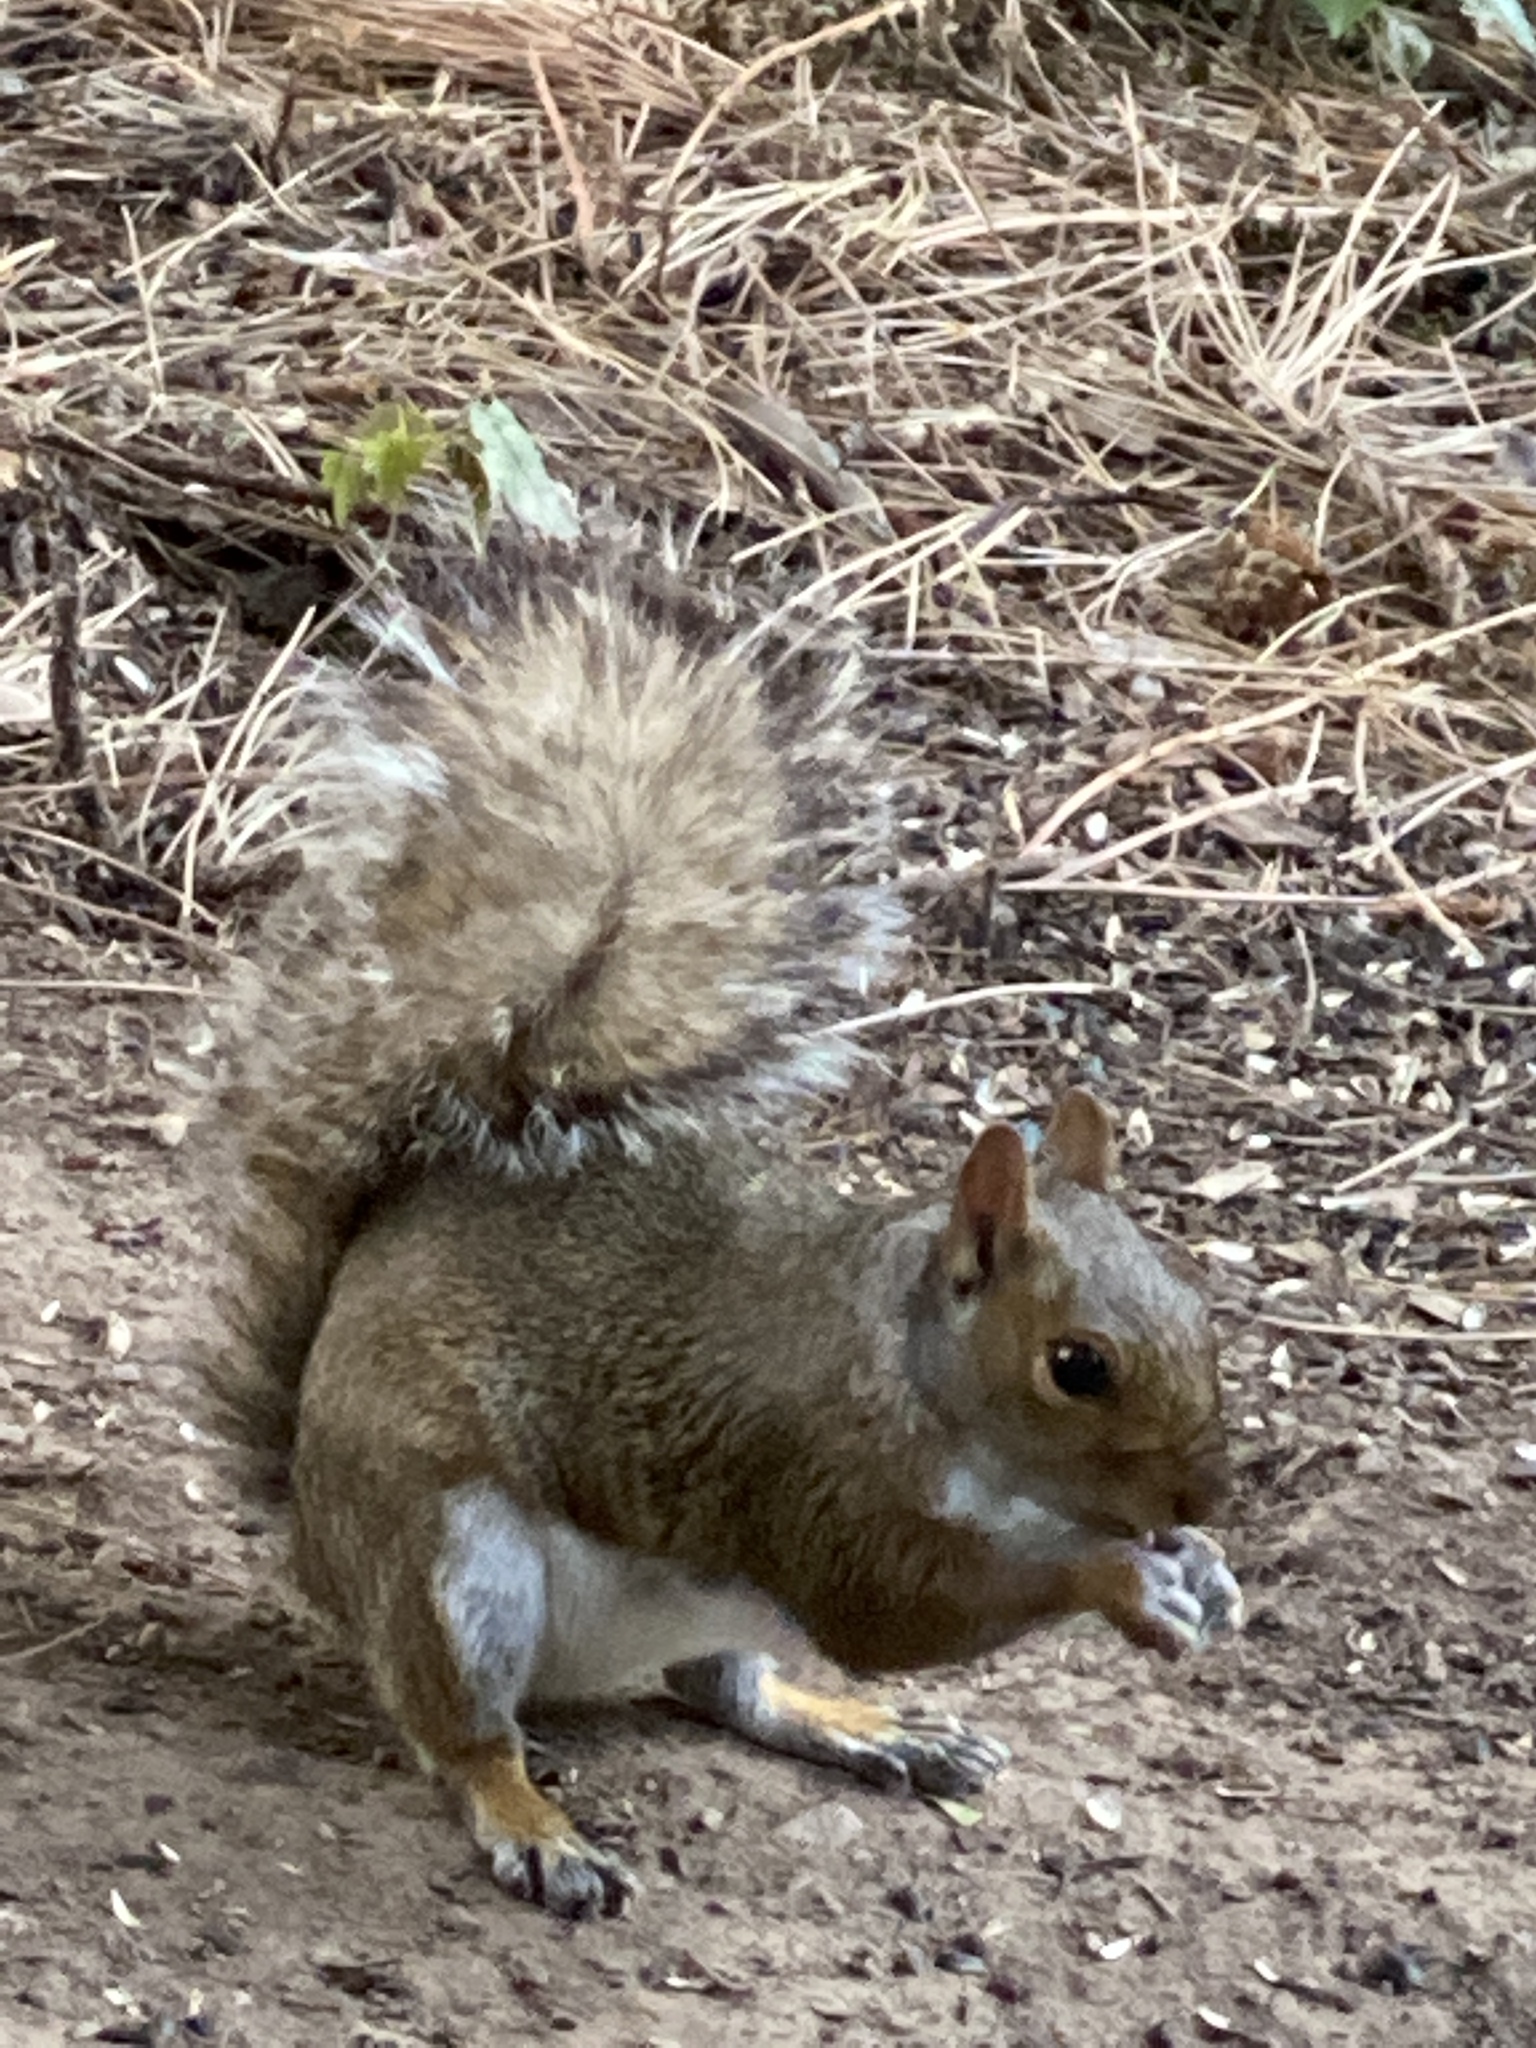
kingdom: Animalia
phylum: Chordata
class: Mammalia
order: Rodentia
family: Sciuridae
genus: Sciurus
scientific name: Sciurus carolinensis
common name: Eastern gray squirrel
